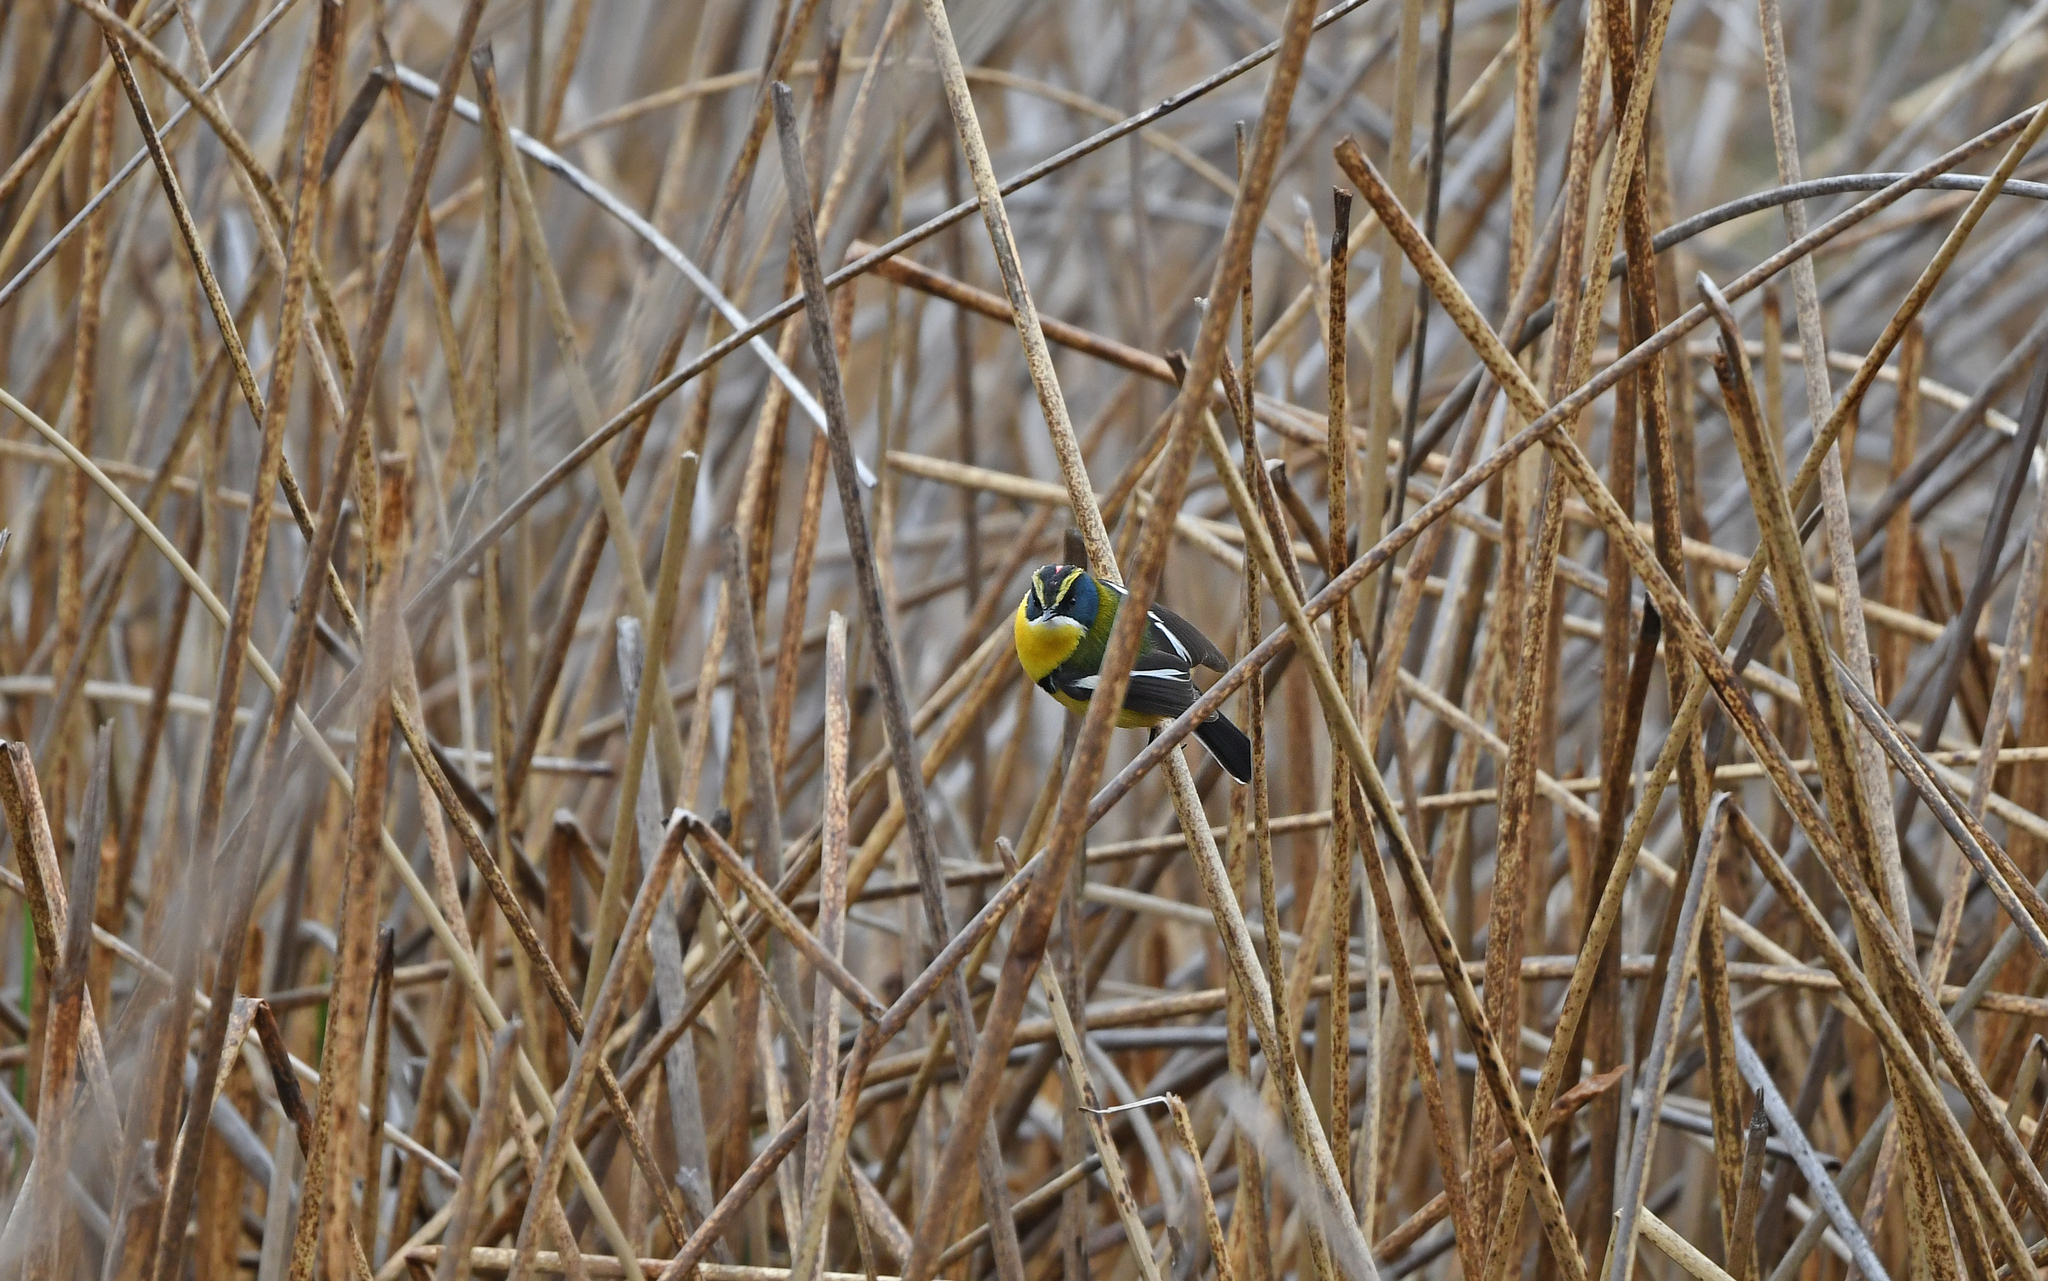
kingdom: Animalia
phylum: Chordata
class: Aves
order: Passeriformes
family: Tyrannidae
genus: Tachuris
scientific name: Tachuris rubrigastra
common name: Many-colored rush tyrant
